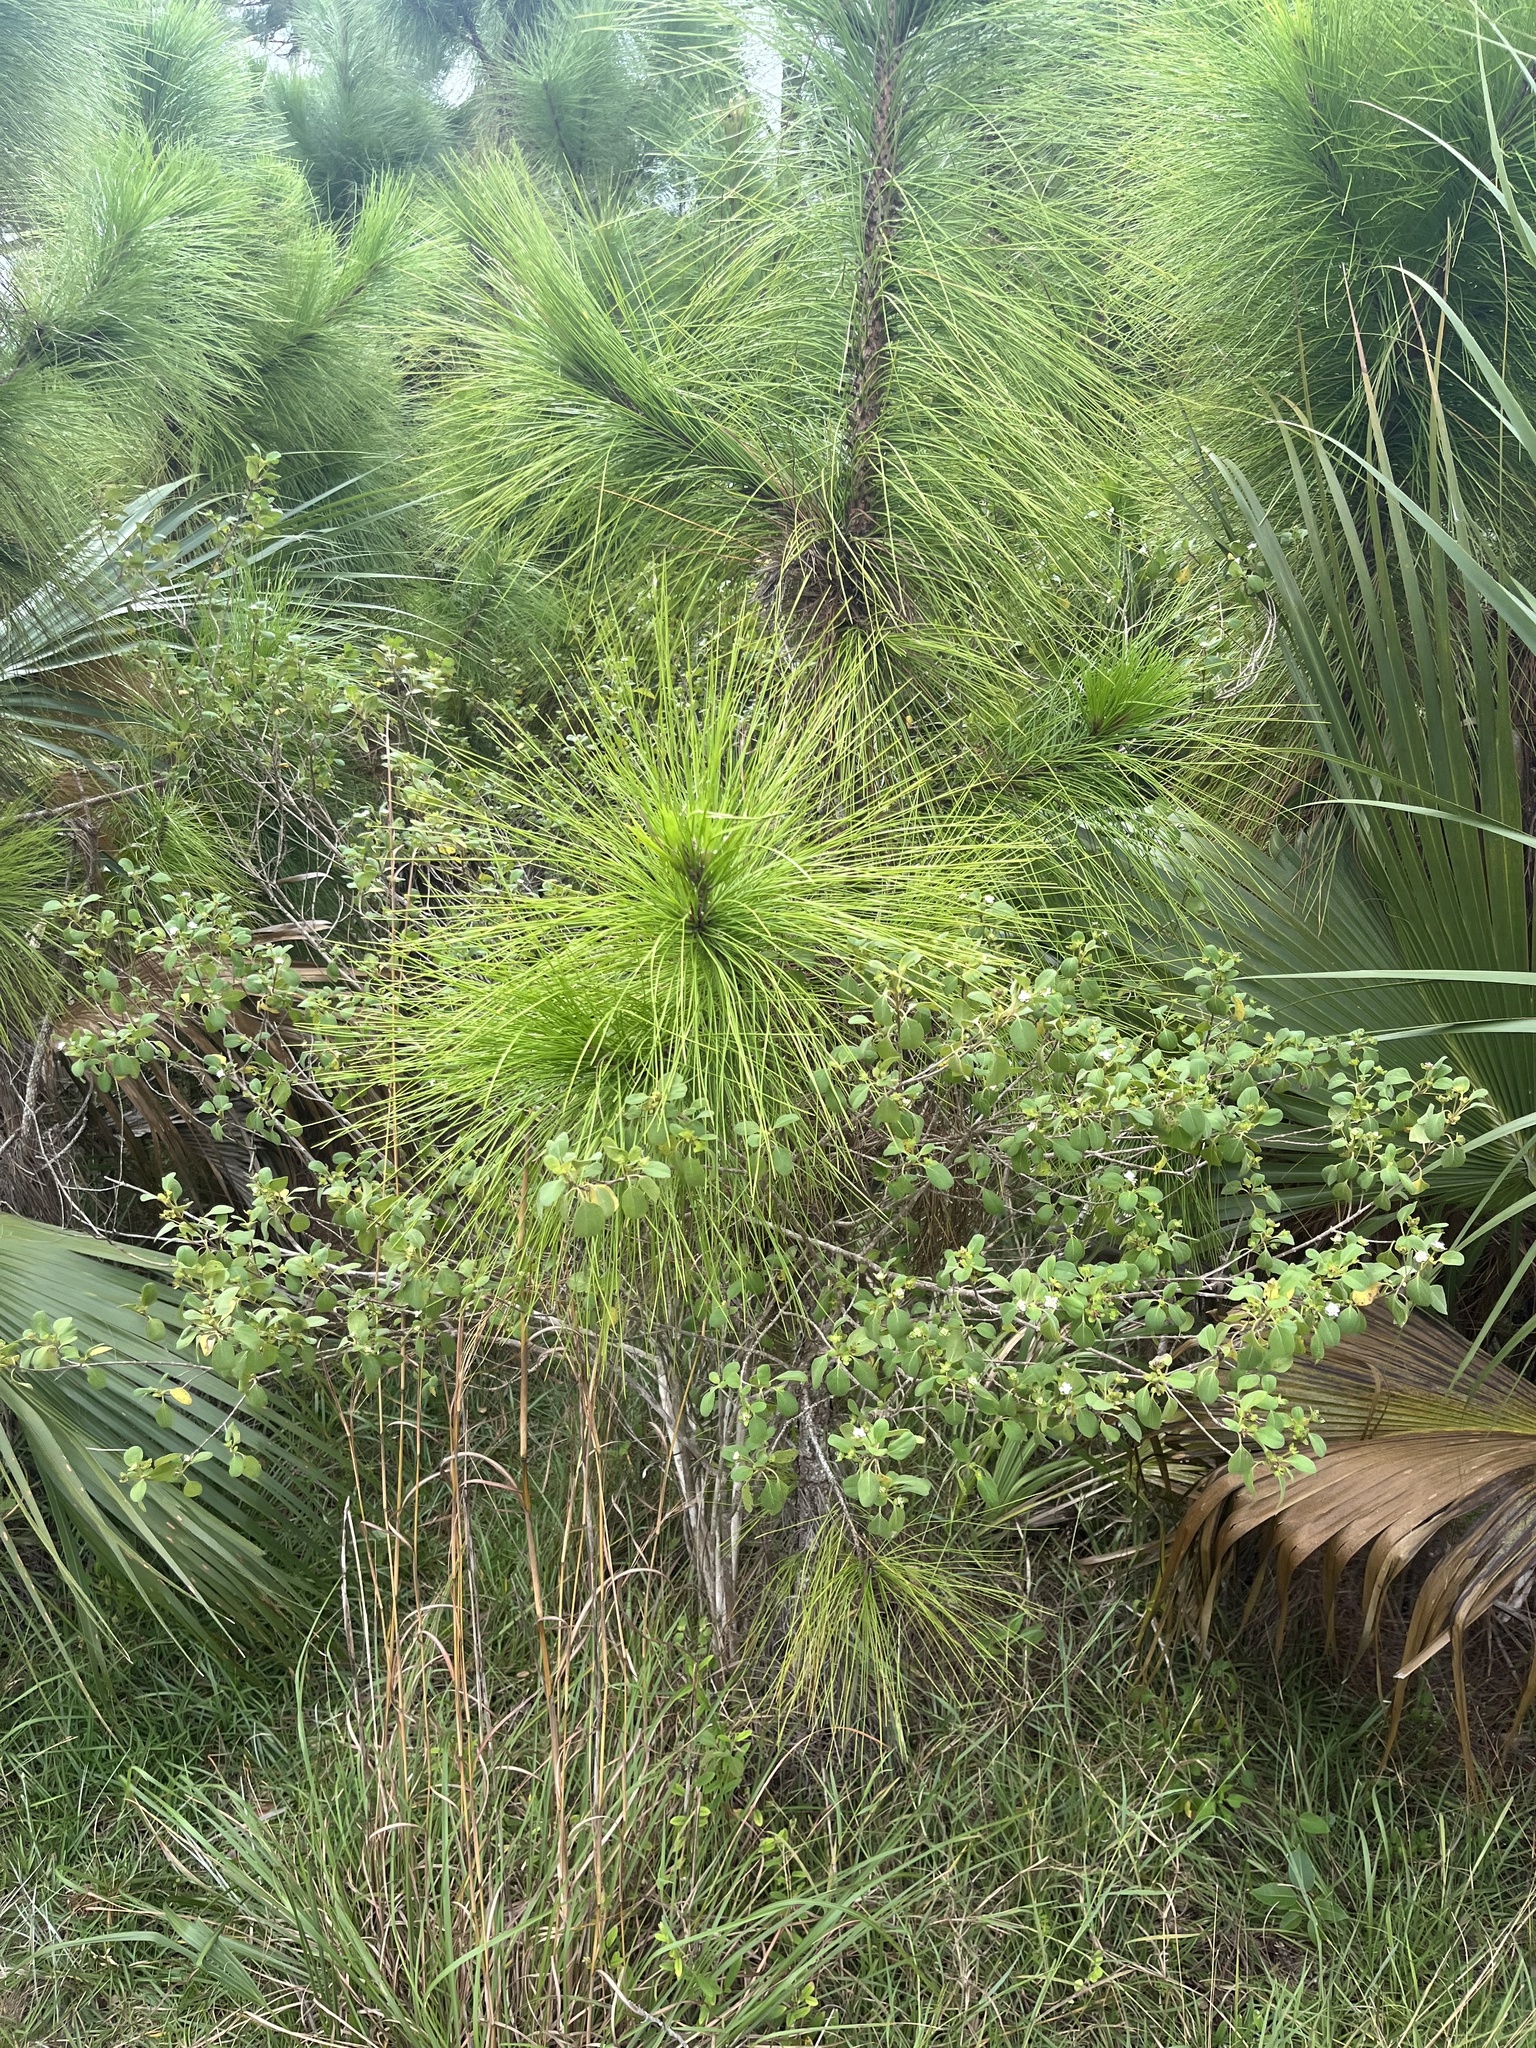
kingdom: Plantae
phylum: Tracheophyta
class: Magnoliopsida
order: Lamiales
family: Verbenaceae
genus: Lantana
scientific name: Lantana involucrata
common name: Black sage
